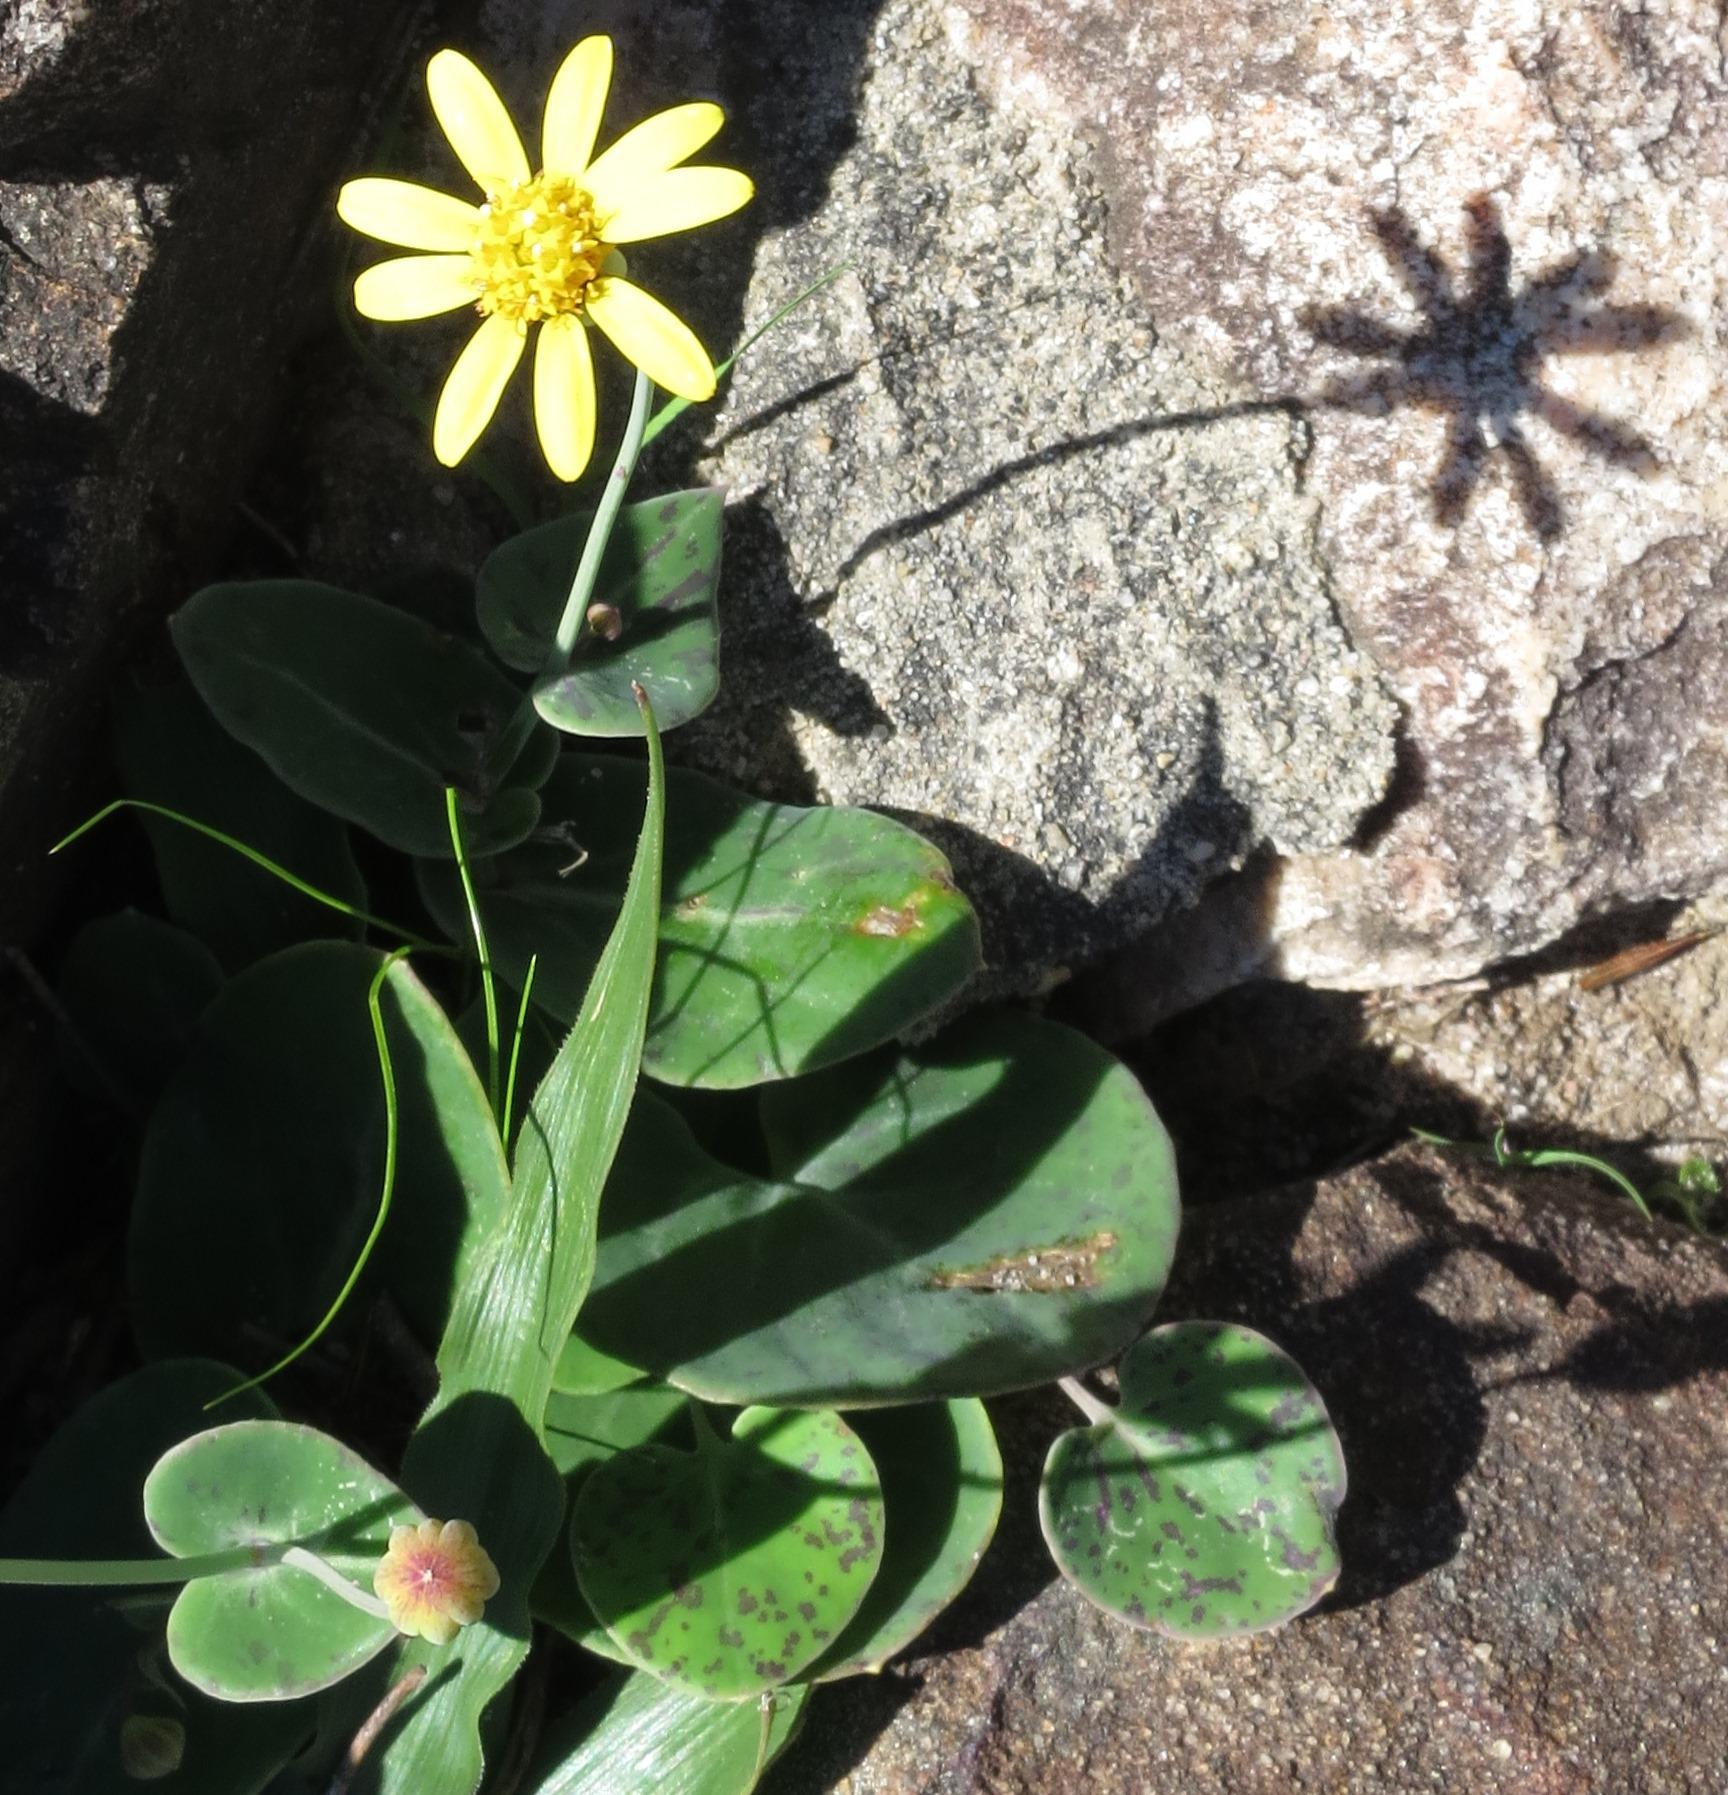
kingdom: Plantae
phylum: Tracheophyta
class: Magnoliopsida
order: Asterales
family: Asteraceae
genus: Othonna
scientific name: Othonna perfoliata
